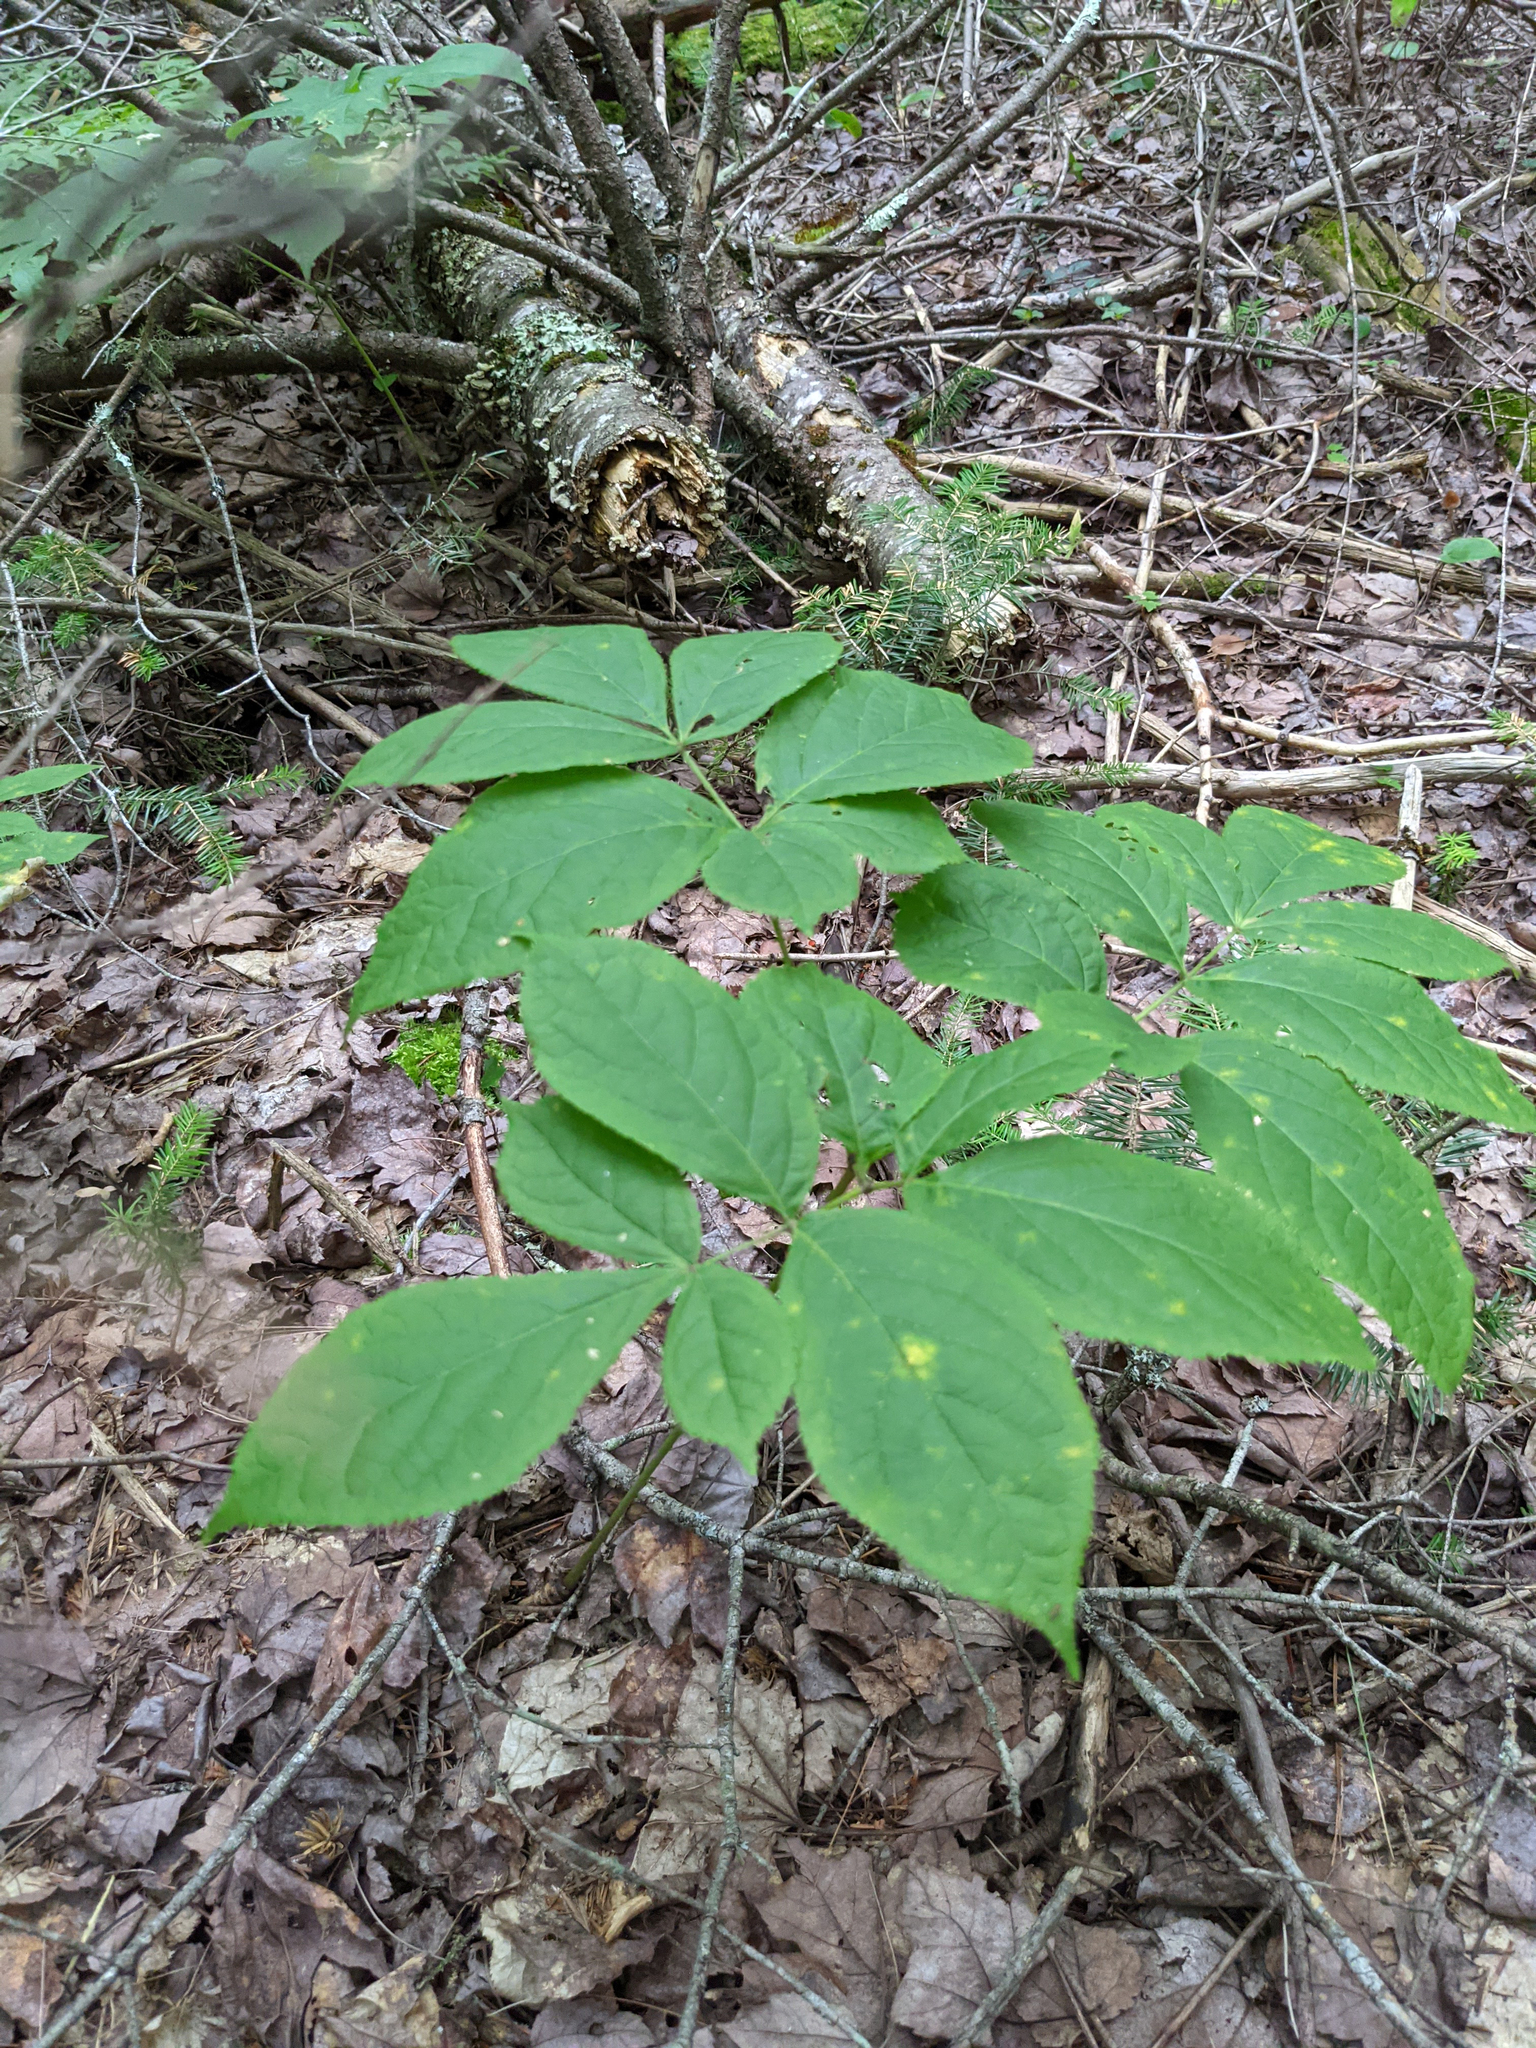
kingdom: Plantae
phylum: Tracheophyta
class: Magnoliopsida
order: Apiales
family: Araliaceae
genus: Aralia
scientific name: Aralia nudicaulis
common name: Wild sarsaparilla
